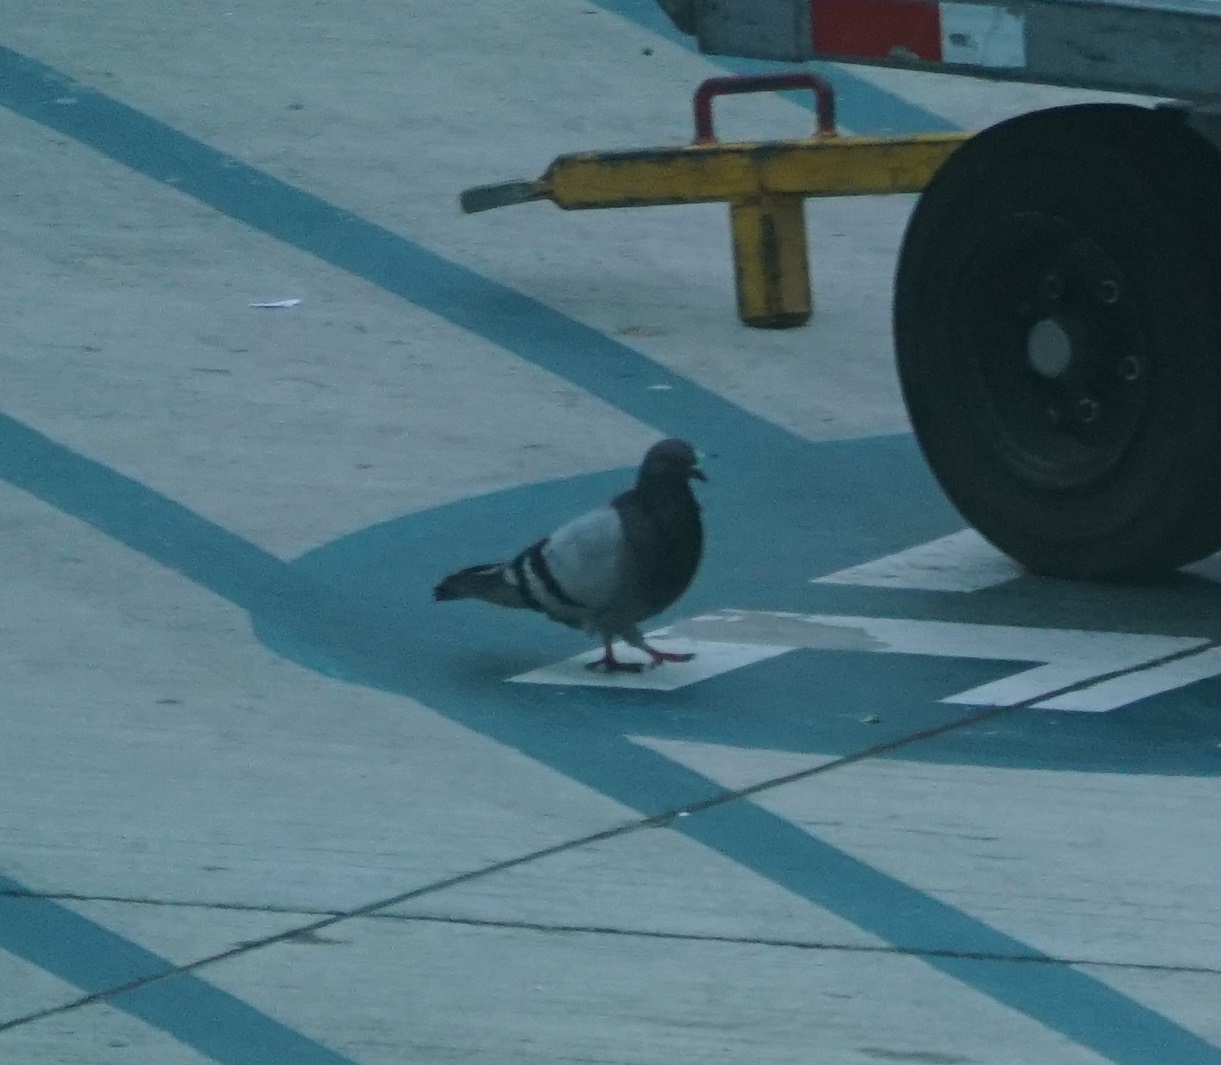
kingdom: Animalia
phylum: Chordata
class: Aves
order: Columbiformes
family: Columbidae
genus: Columba
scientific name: Columba livia
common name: Rock pigeon
